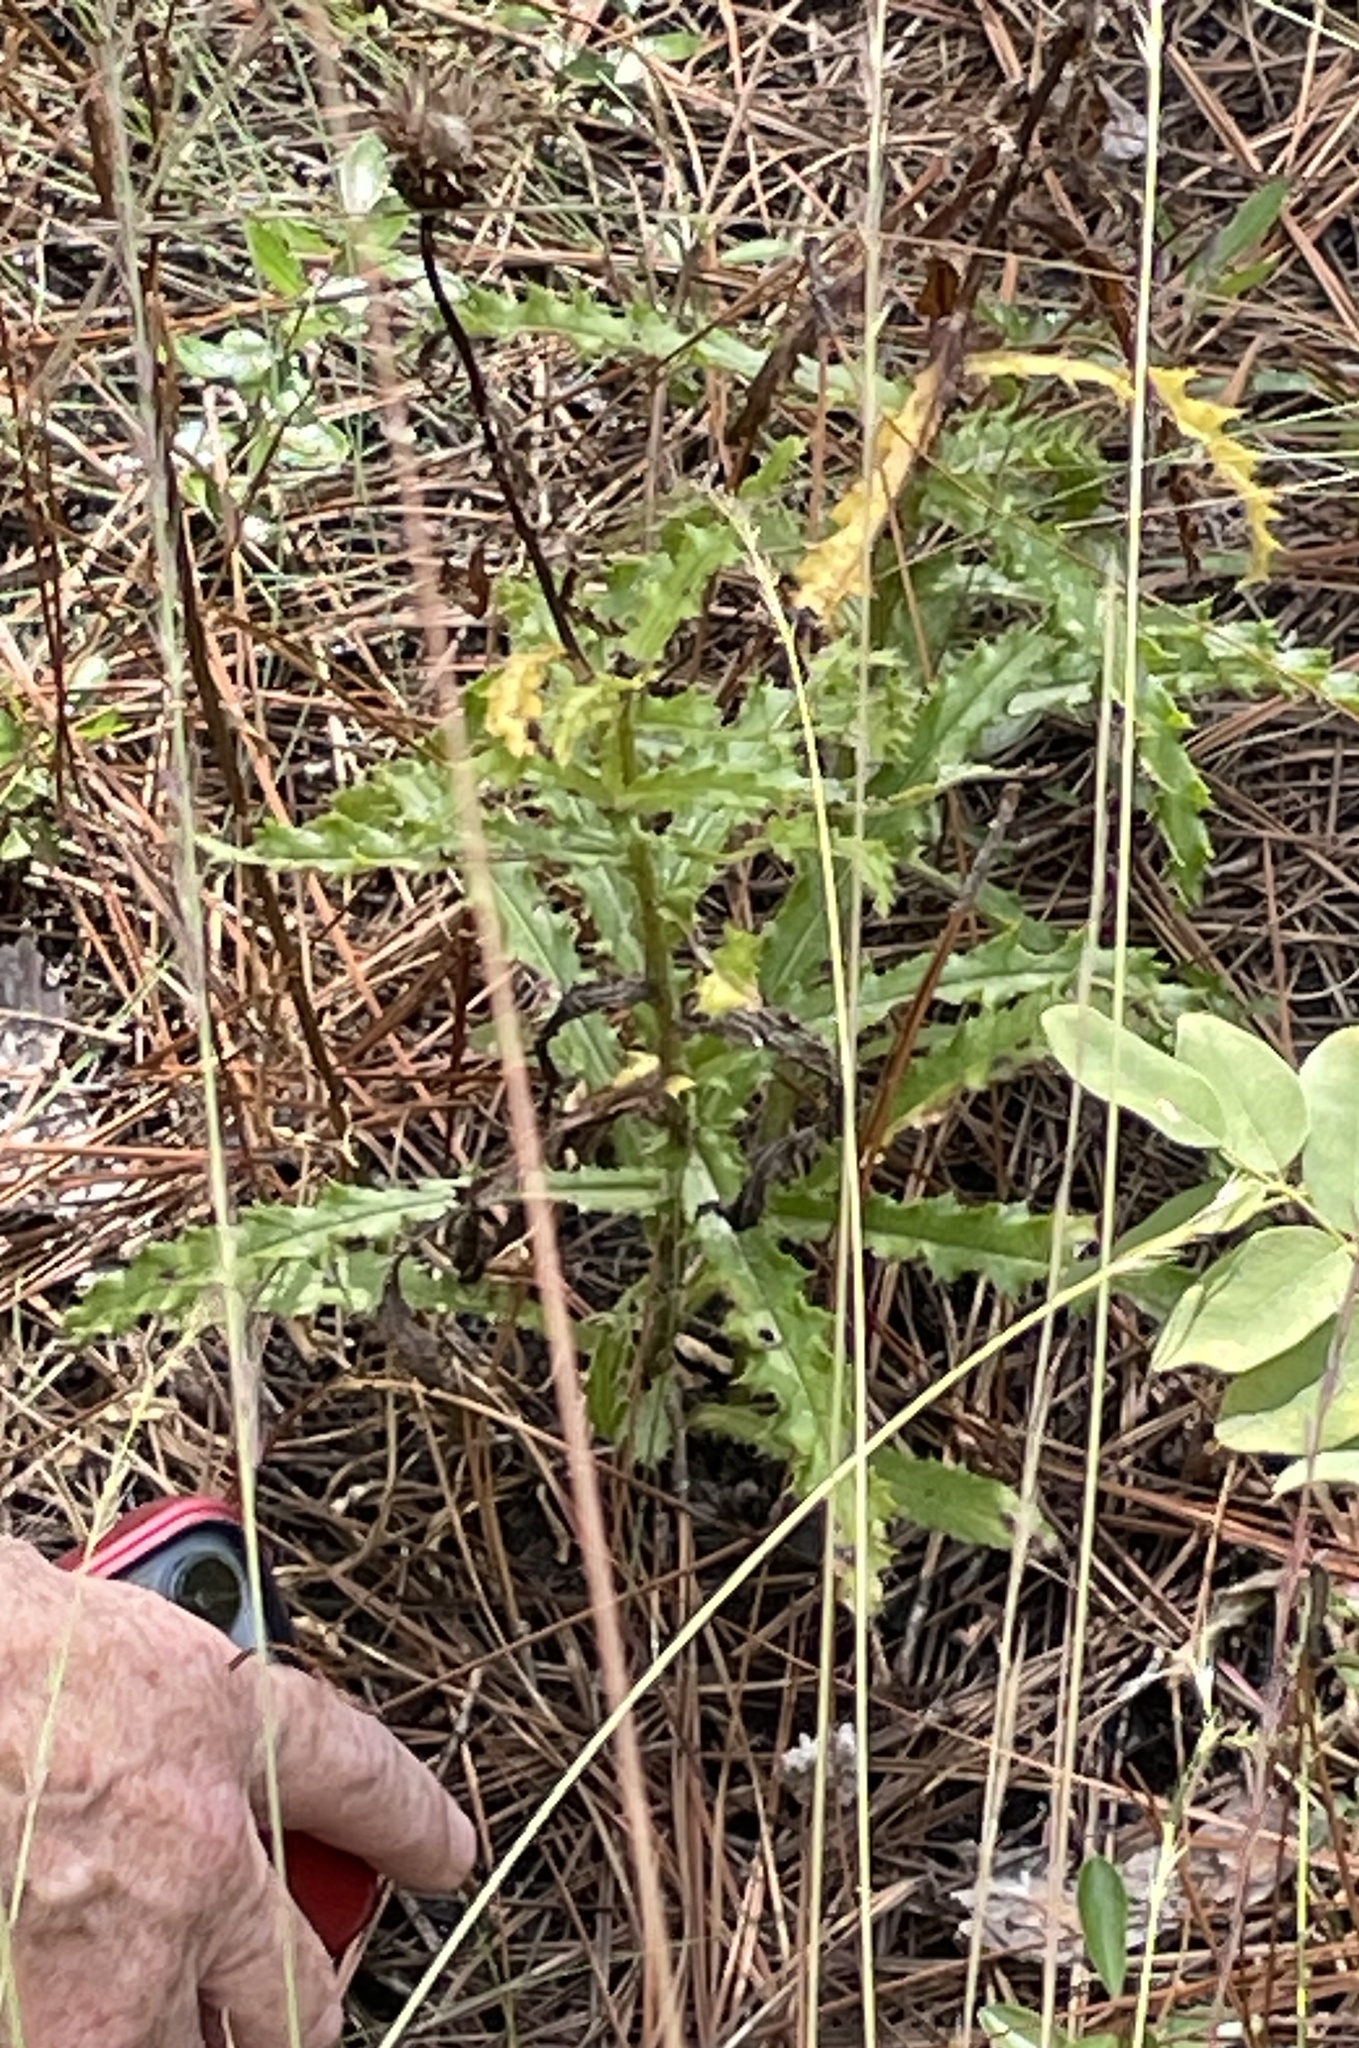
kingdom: Plantae
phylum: Tracheophyta
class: Magnoliopsida
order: Asterales
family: Asteraceae
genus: Cirsium
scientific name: Cirsium repandum
